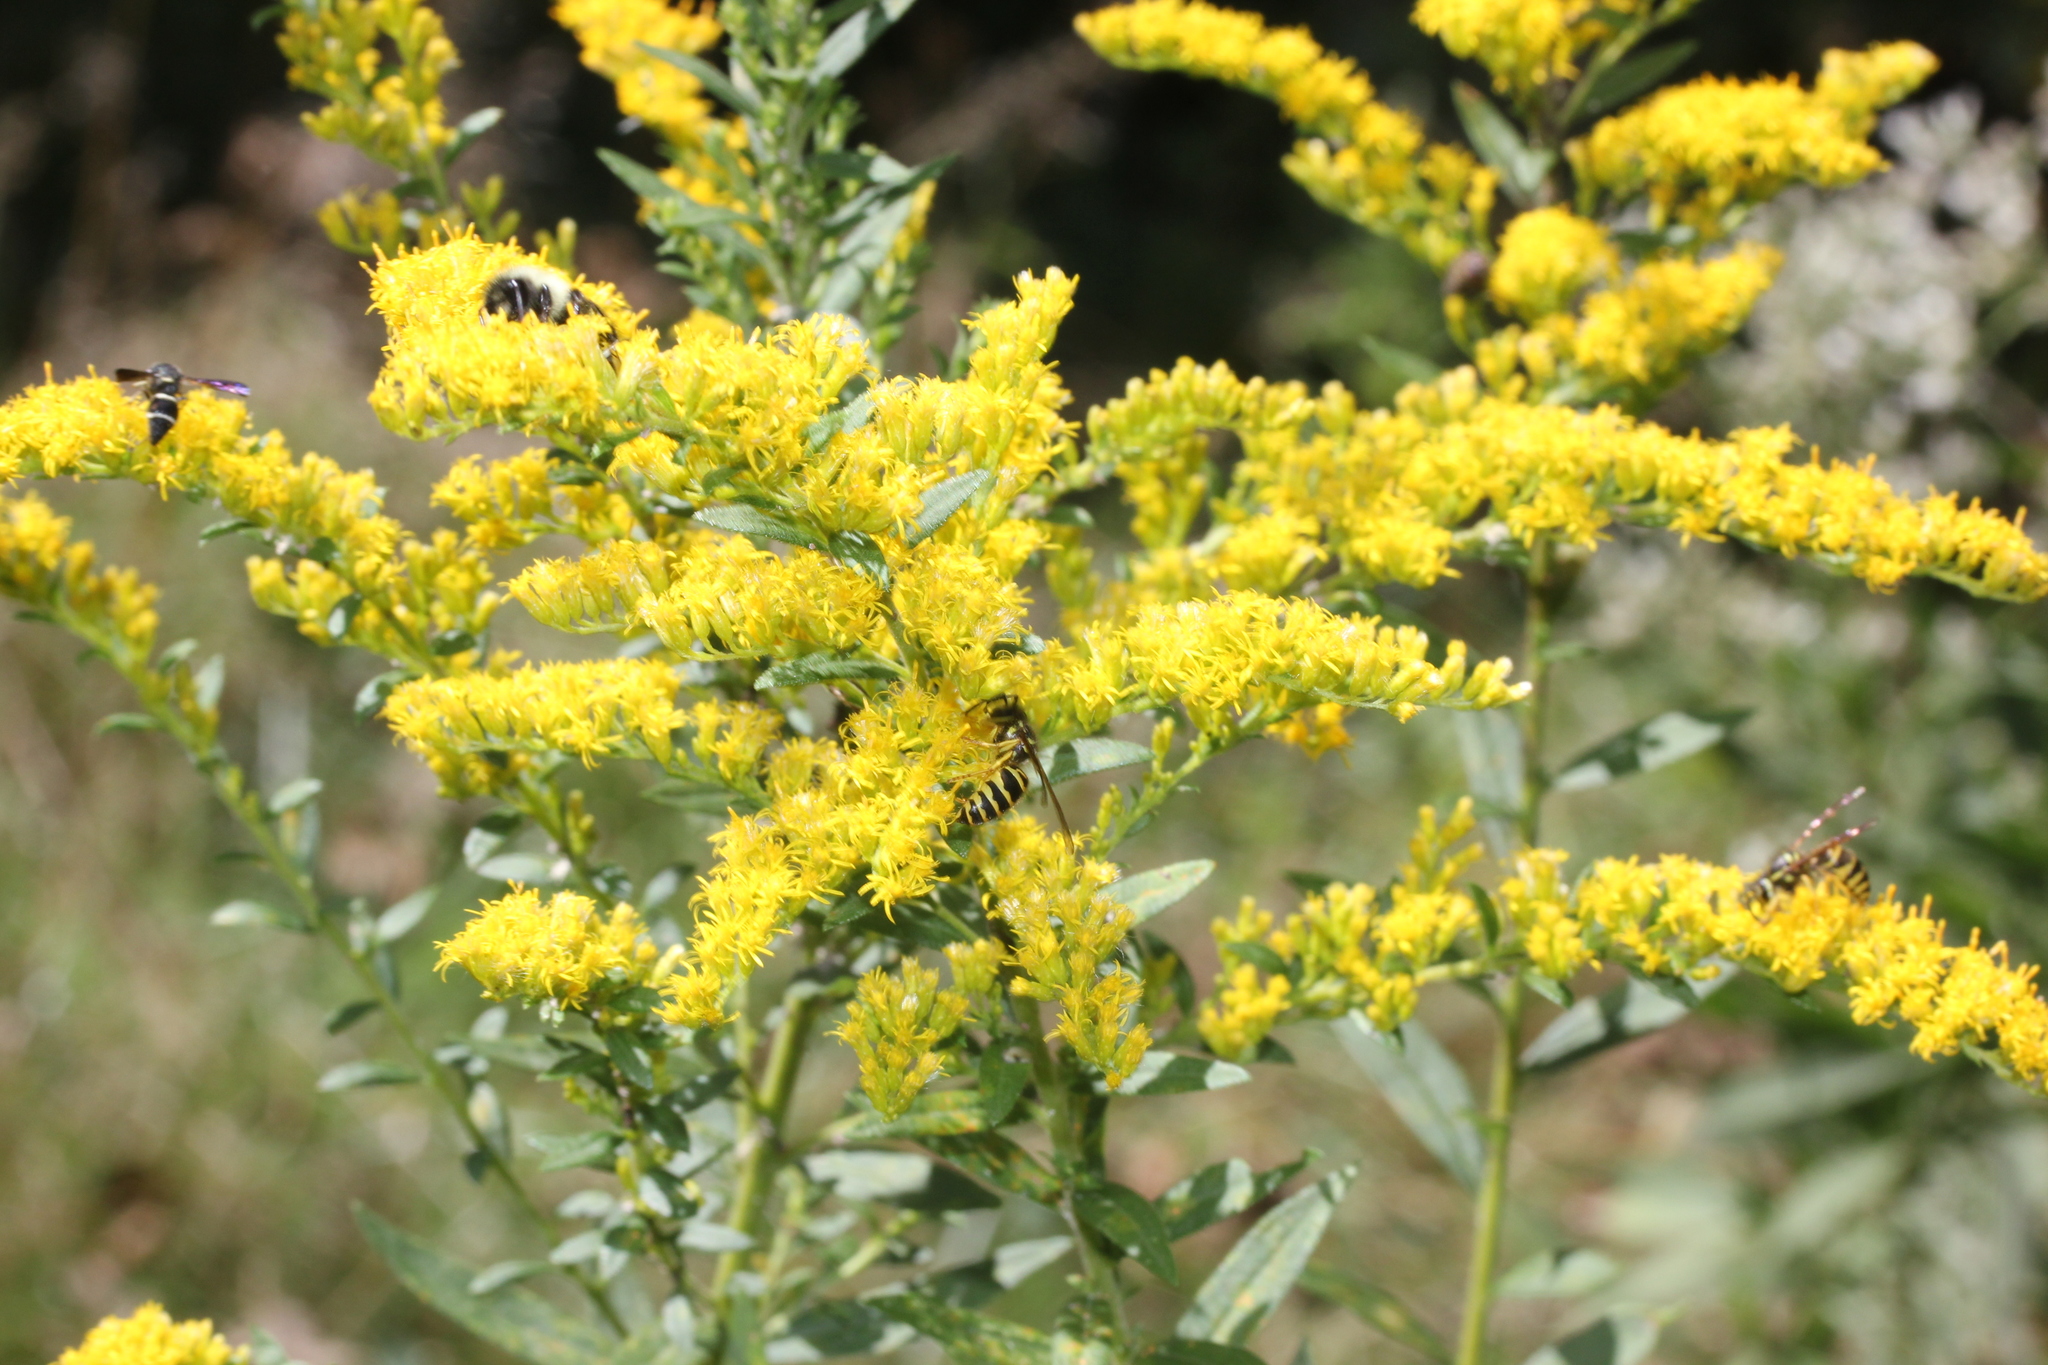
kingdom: Animalia
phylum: Arthropoda
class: Insecta
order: Hymenoptera
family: Vespidae
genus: Vespula
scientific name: Vespula maculifrons
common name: Eastern yellowjacket
